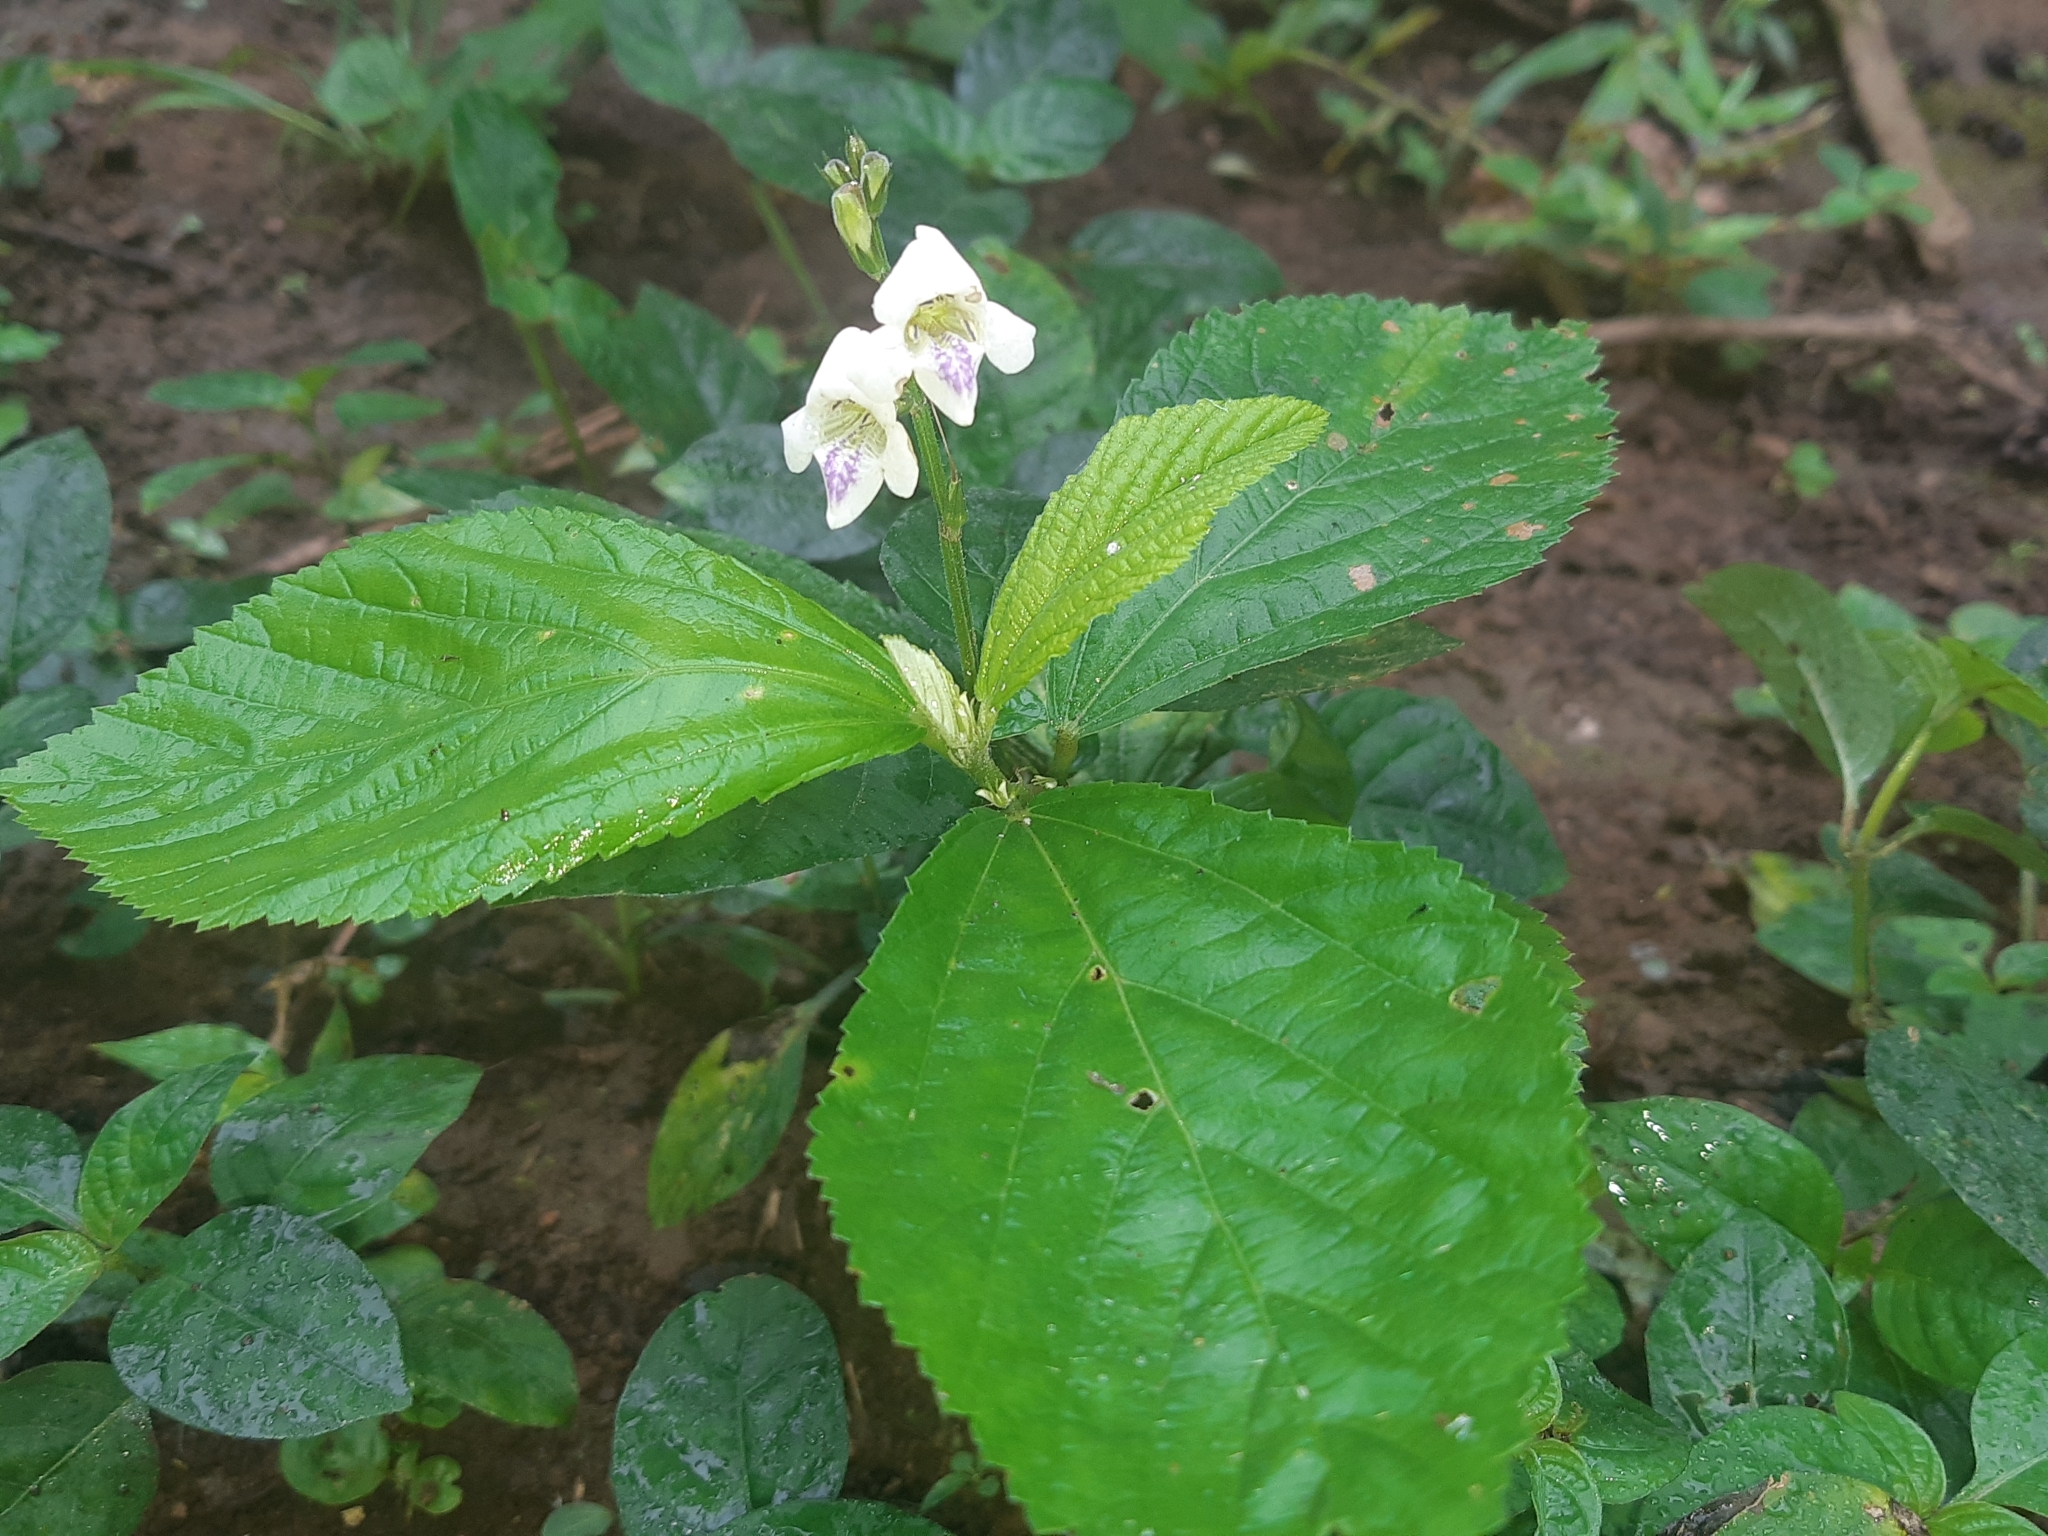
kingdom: Plantae
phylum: Tracheophyta
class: Magnoliopsida
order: Lamiales
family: Acanthaceae
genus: Asystasia
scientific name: Asystasia intrusa
